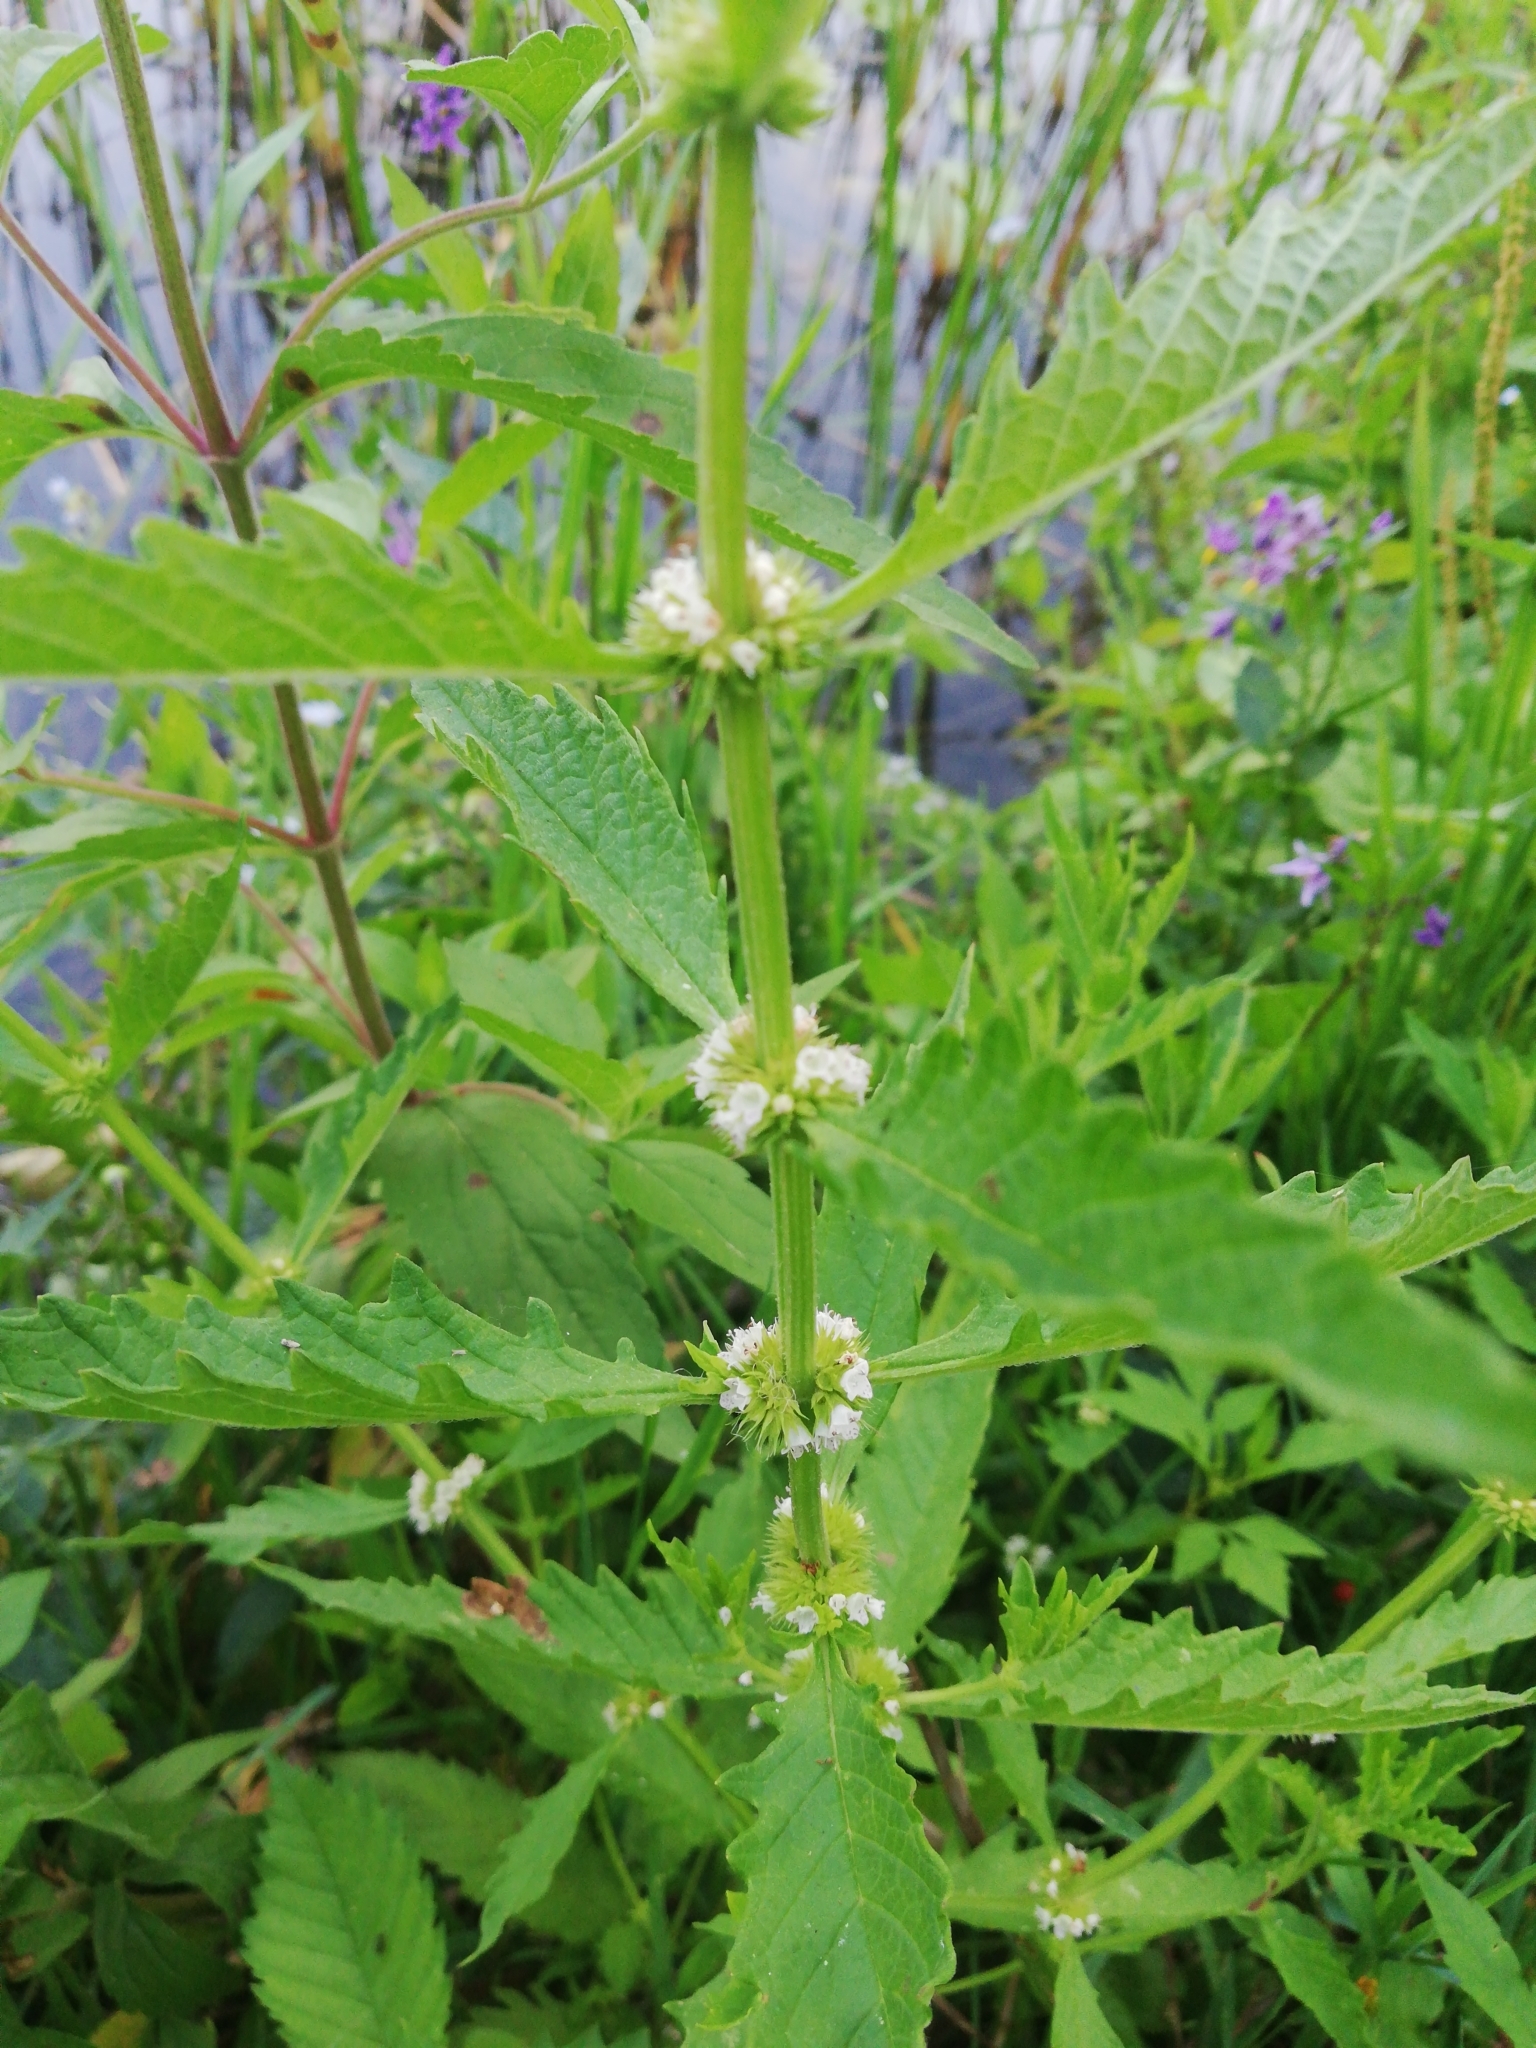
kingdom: Plantae
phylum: Tracheophyta
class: Magnoliopsida
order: Lamiales
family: Lamiaceae
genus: Lycopus
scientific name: Lycopus europaeus
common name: European bugleweed
